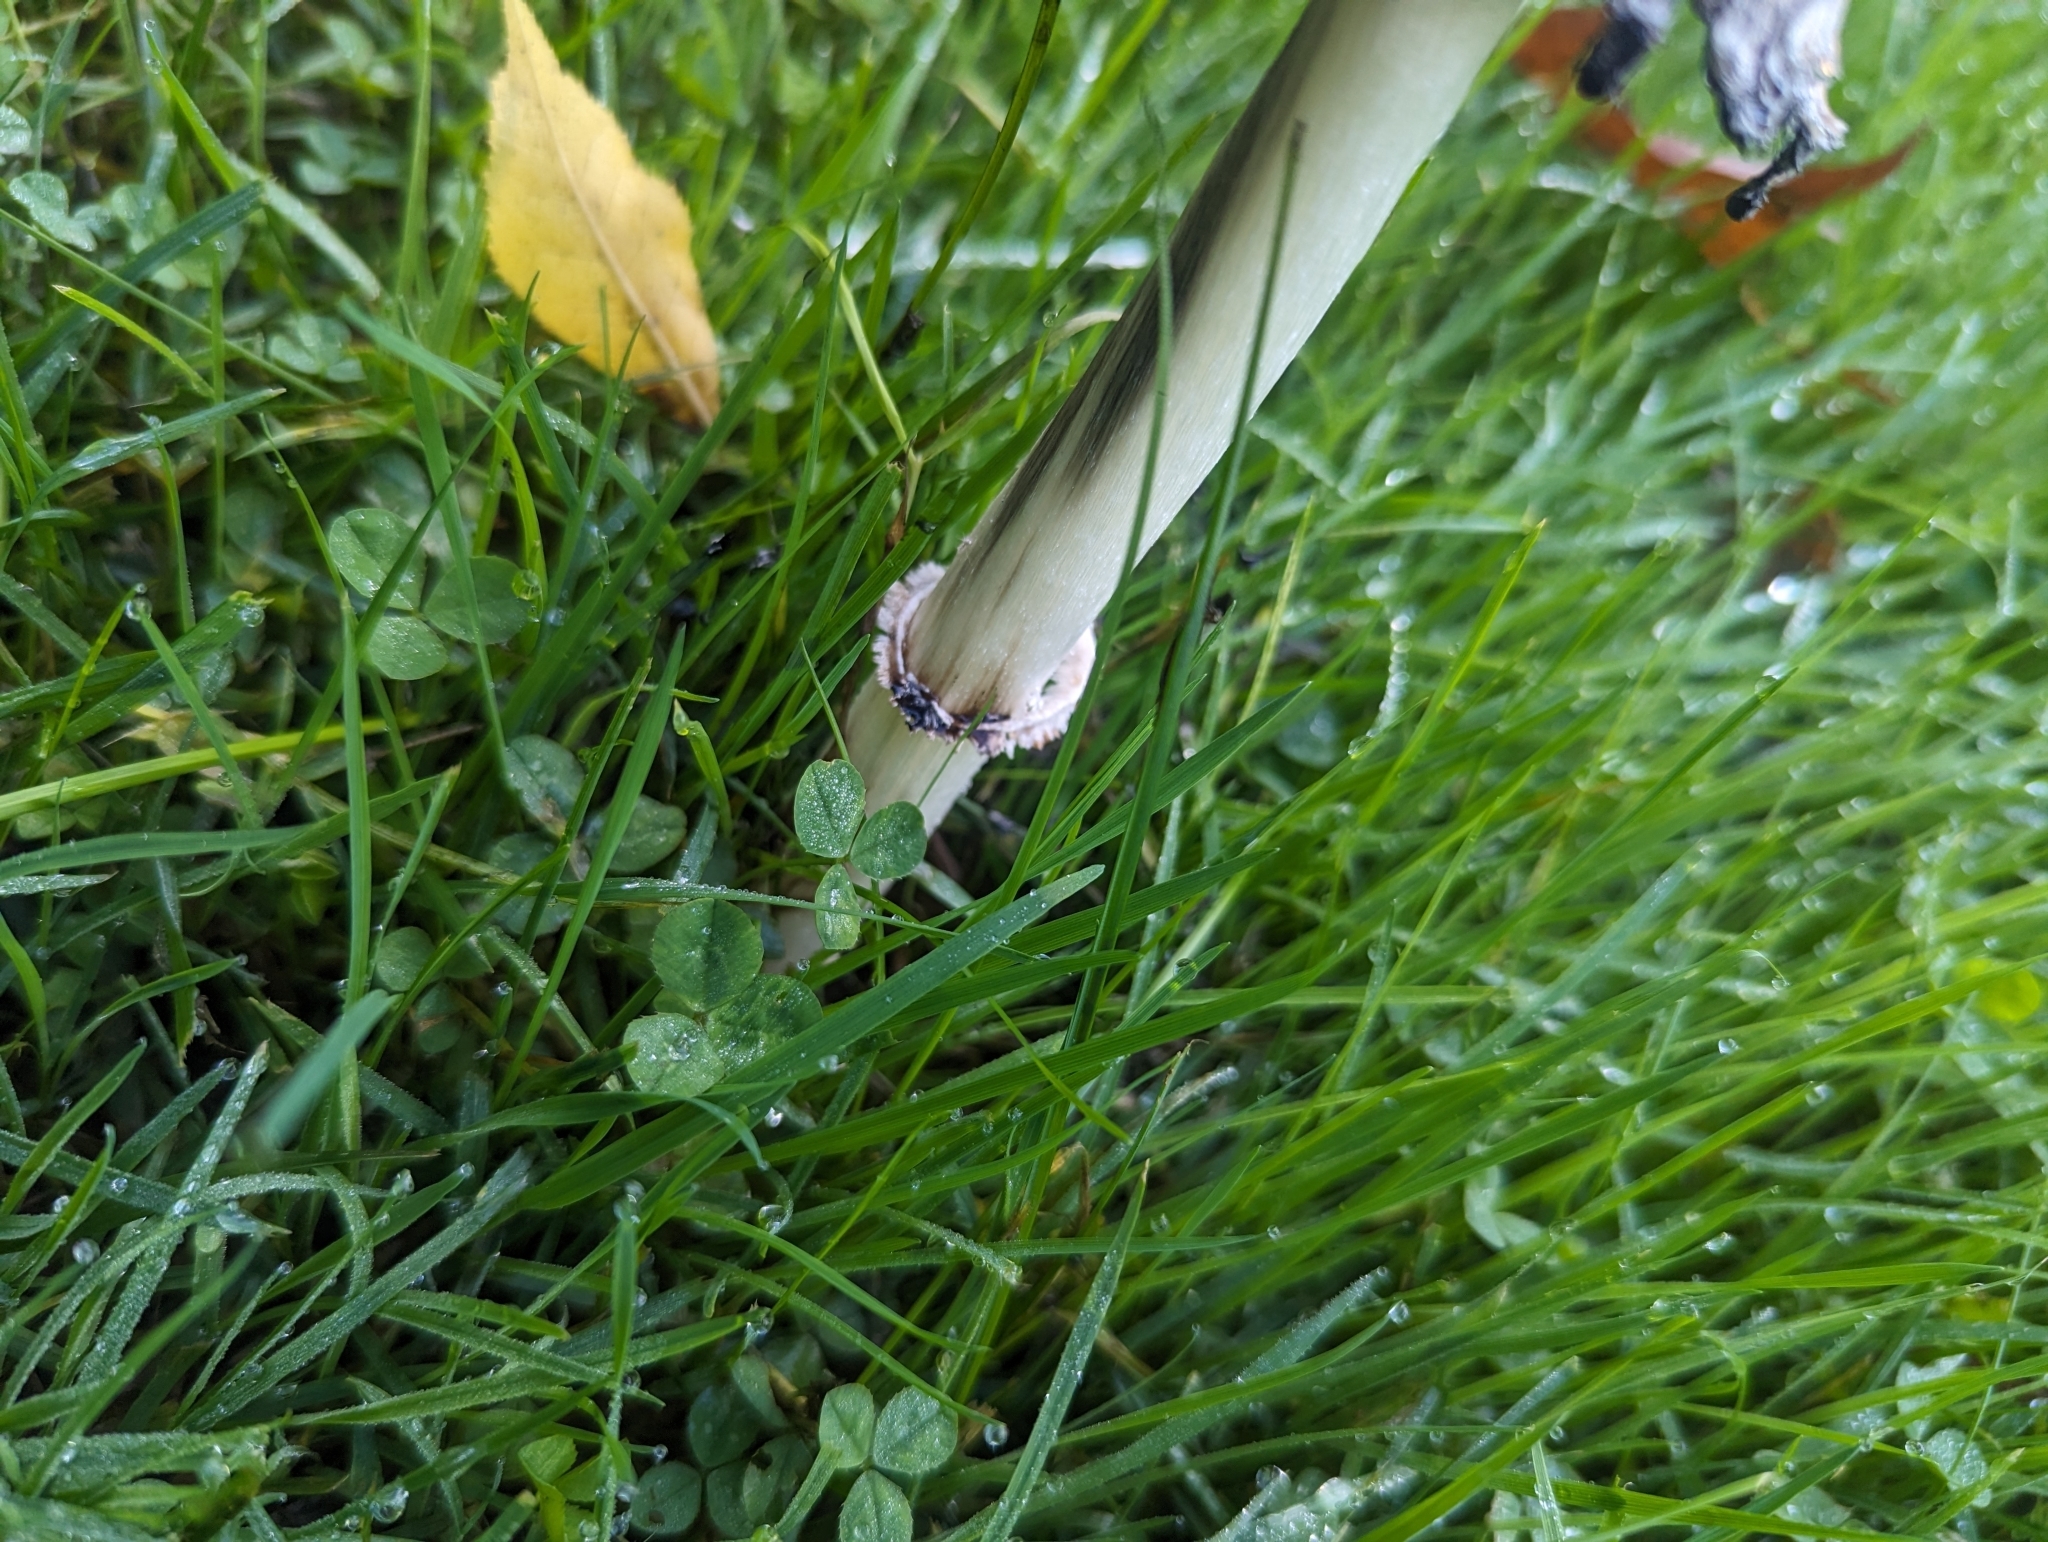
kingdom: Fungi
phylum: Basidiomycota
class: Agaricomycetes
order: Agaricales
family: Agaricaceae
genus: Coprinus
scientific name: Coprinus comatus
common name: Lawyer's wig
